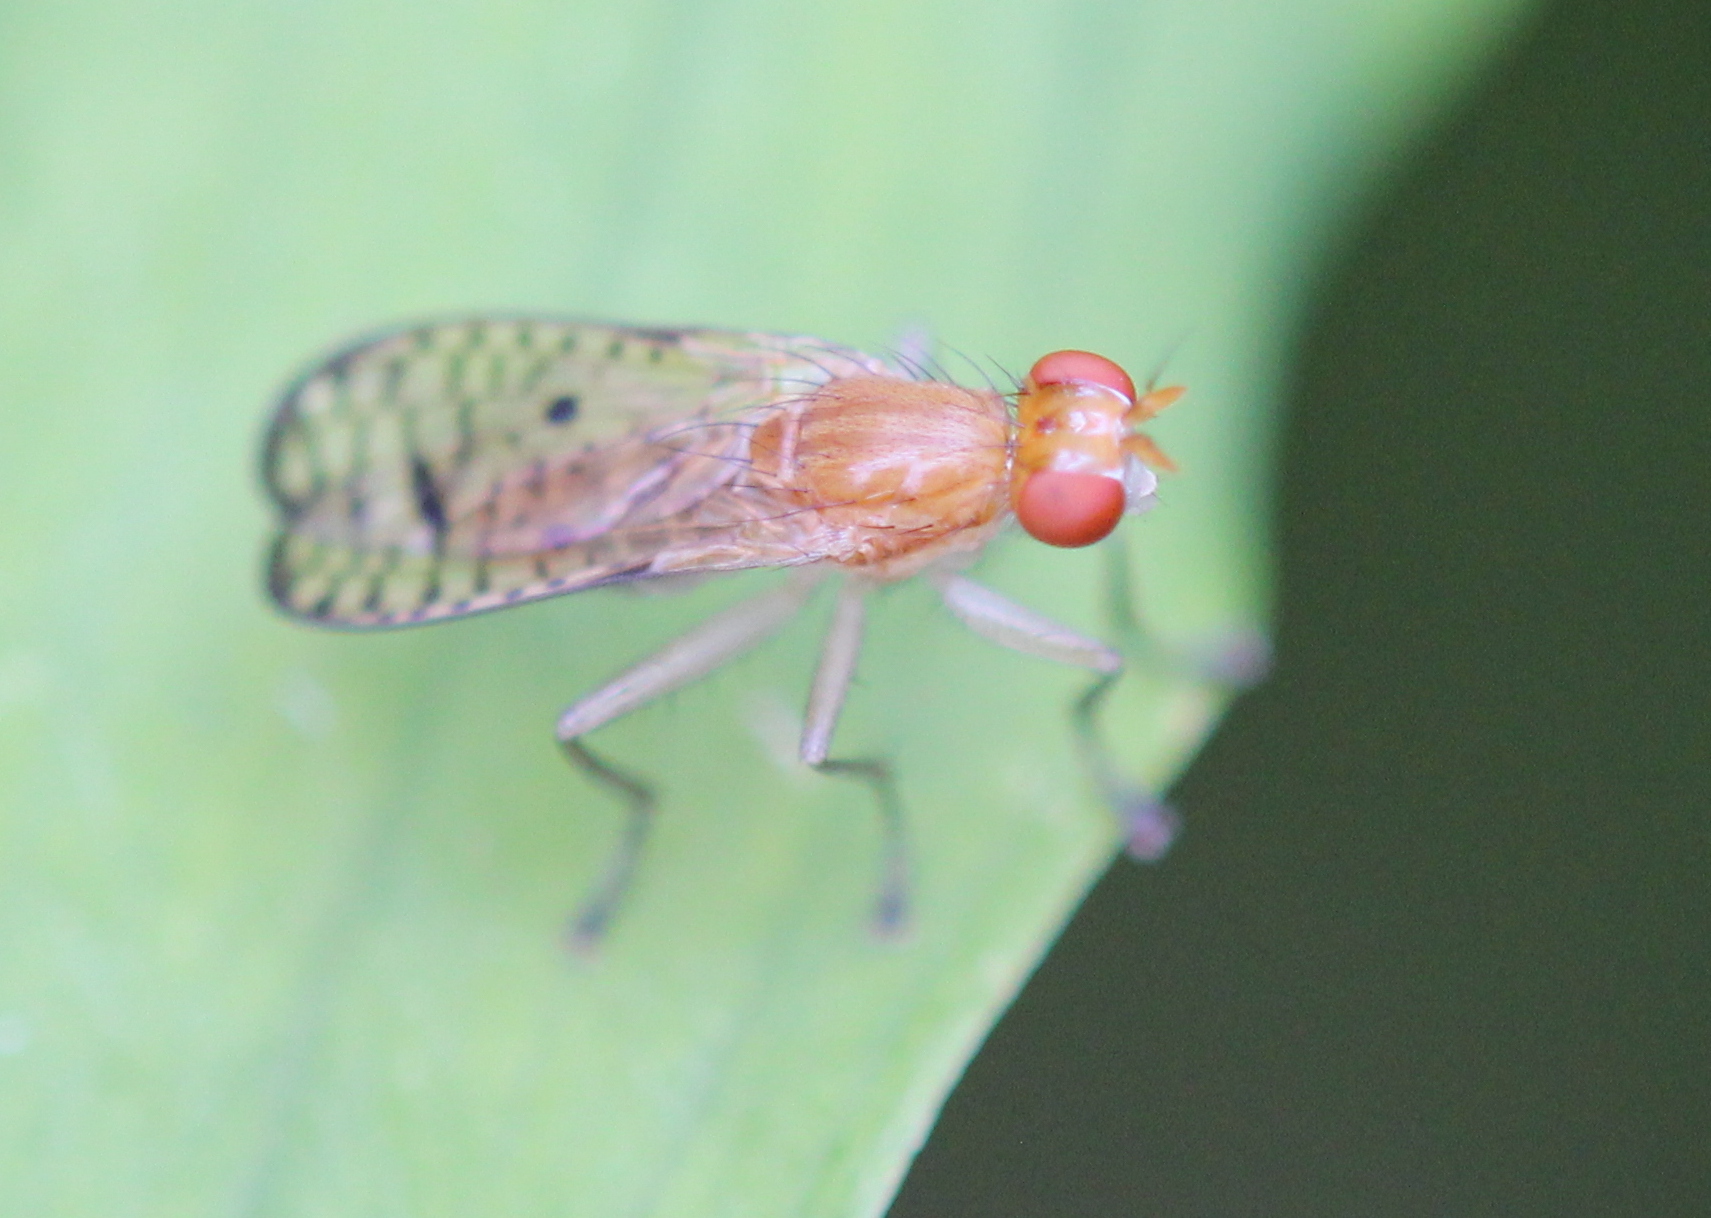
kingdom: Animalia
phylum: Arthropoda
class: Insecta
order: Diptera
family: Sciomyzidae
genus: Tetanocera
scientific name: Tetanocera valida
